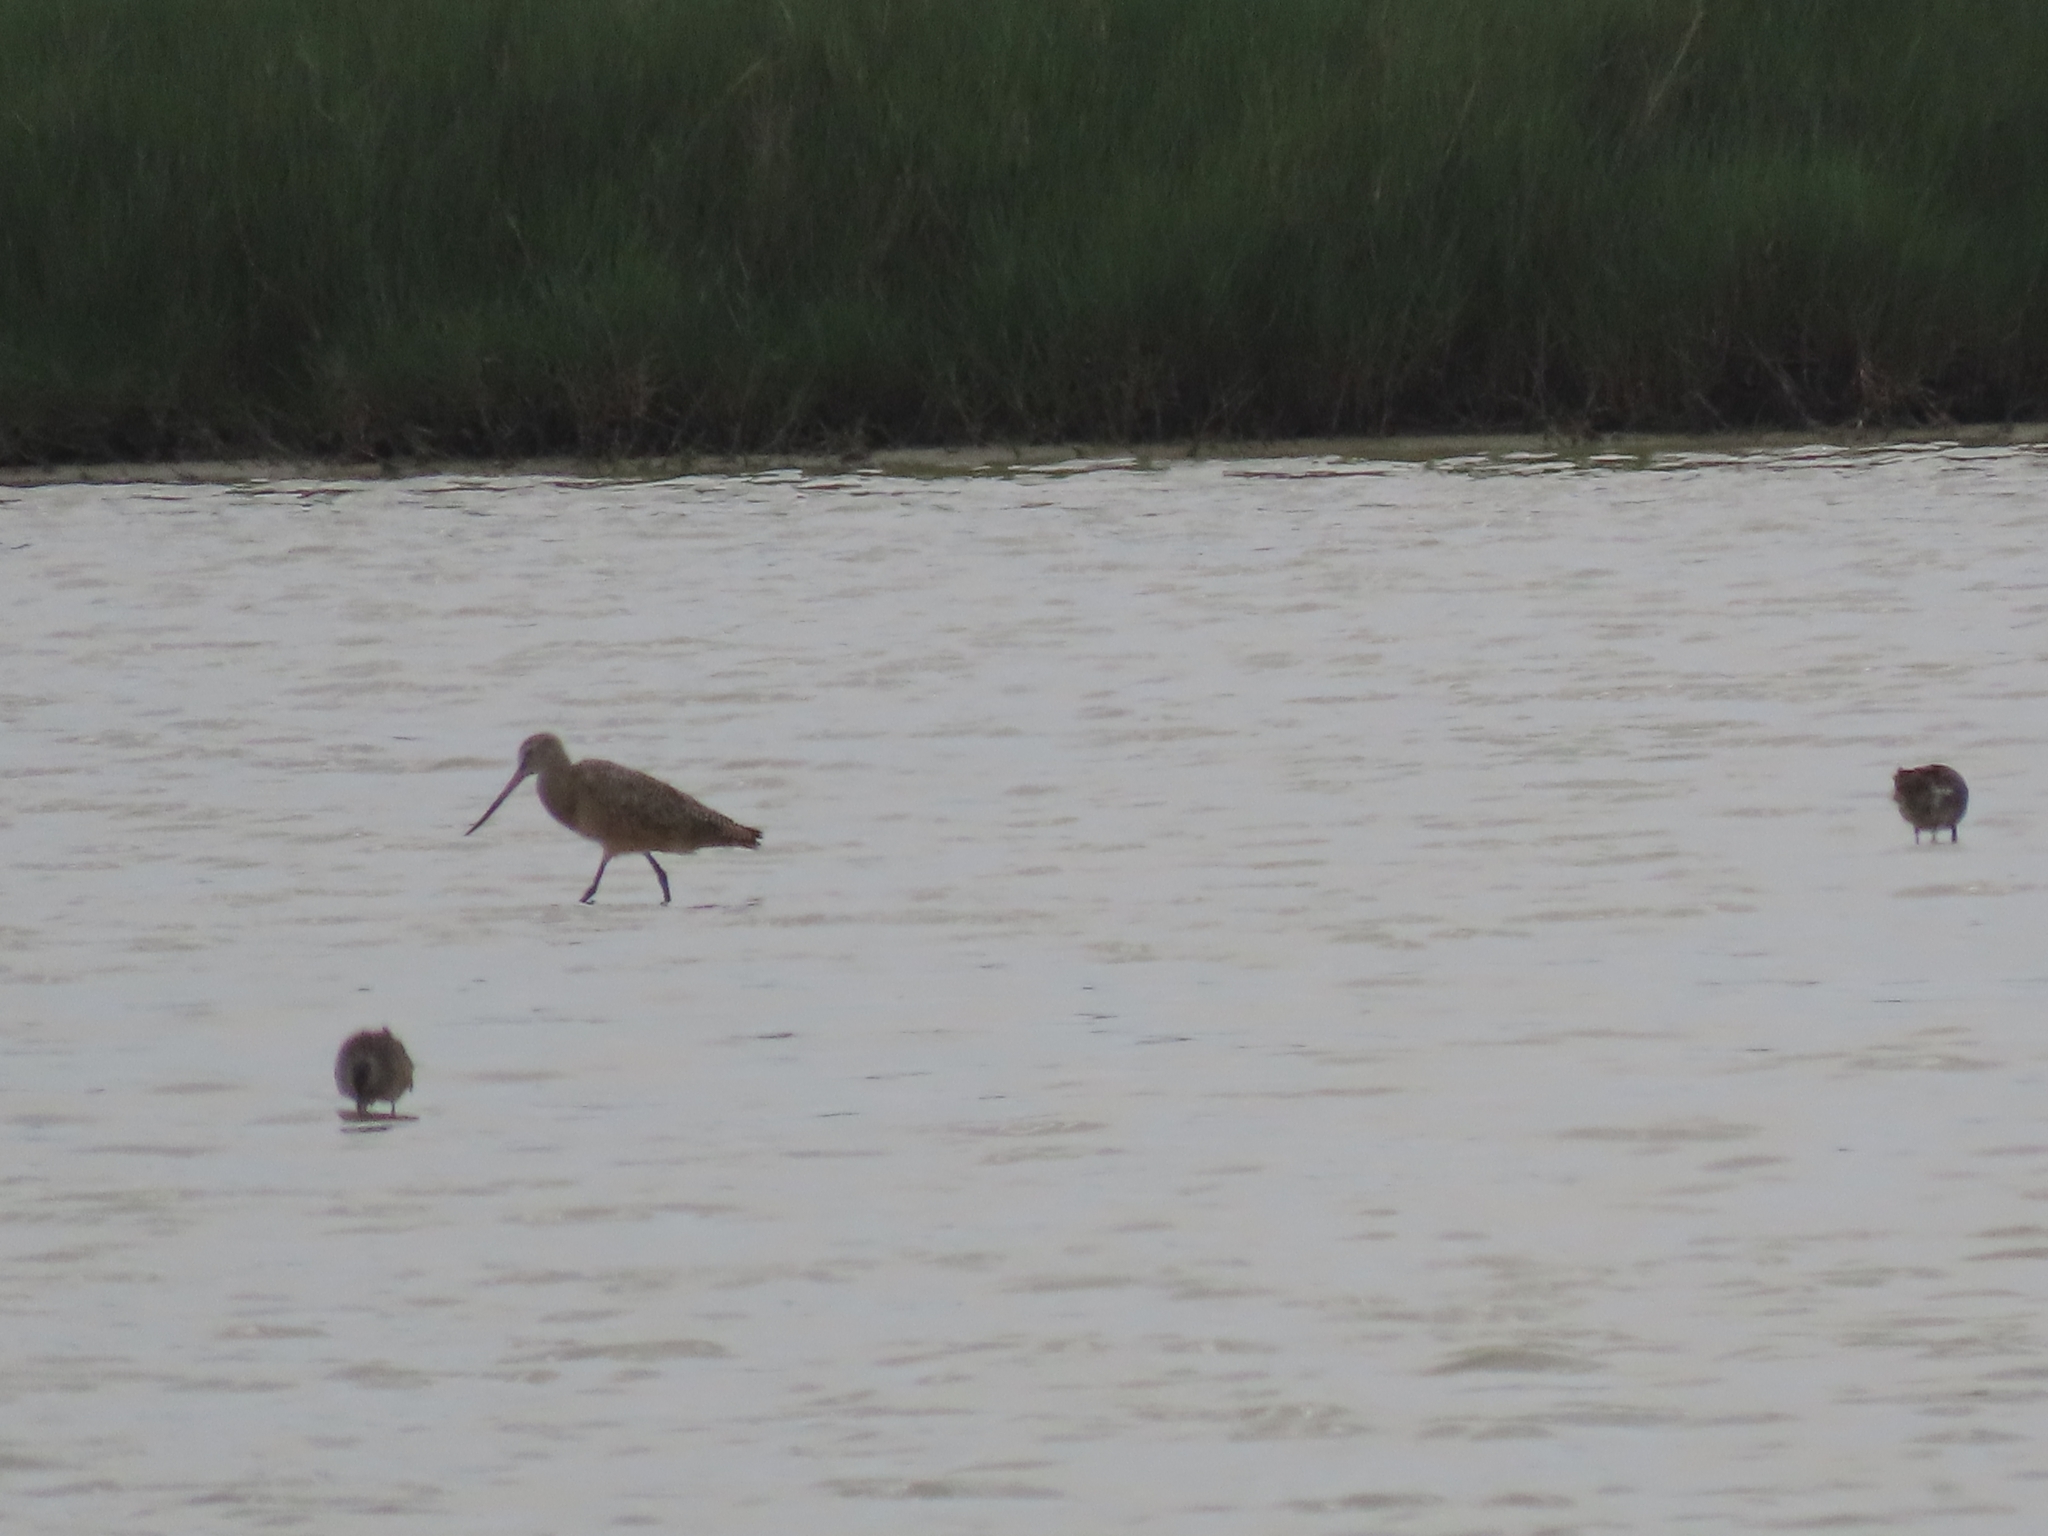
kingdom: Animalia
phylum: Chordata
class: Aves
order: Charadriiformes
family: Scolopacidae
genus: Limosa
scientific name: Limosa fedoa
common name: Marbled godwit
